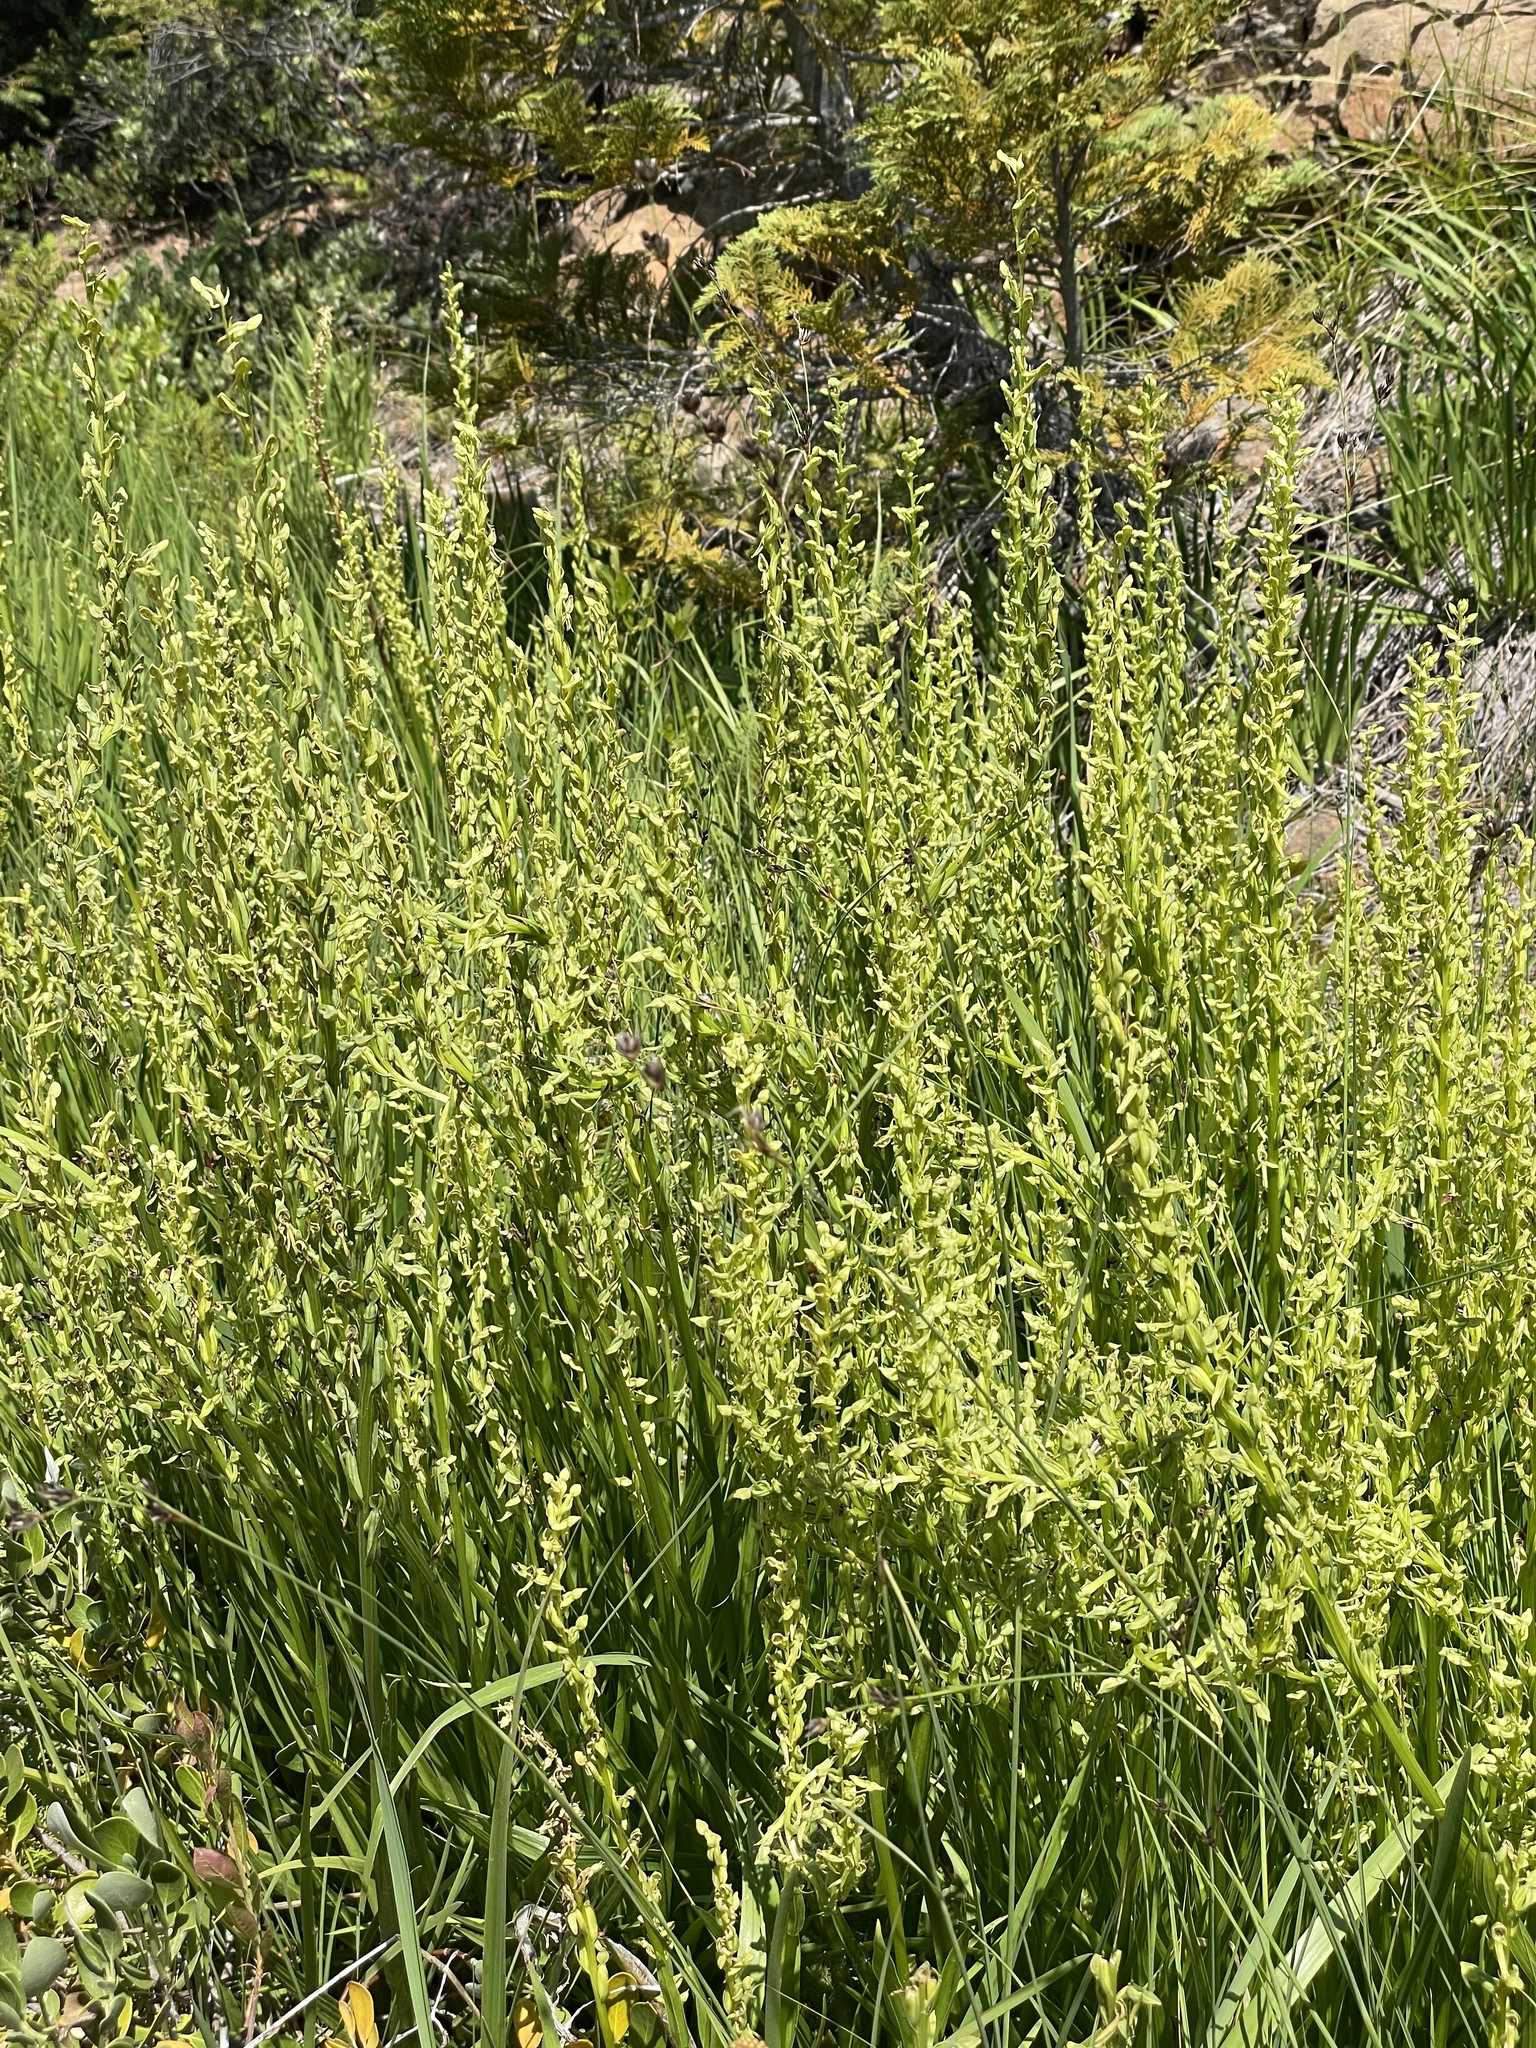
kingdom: Plantae
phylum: Tracheophyta
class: Liliopsida
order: Asparagales
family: Orchidaceae
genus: Platanthera
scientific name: Platanthera sparsiflora
